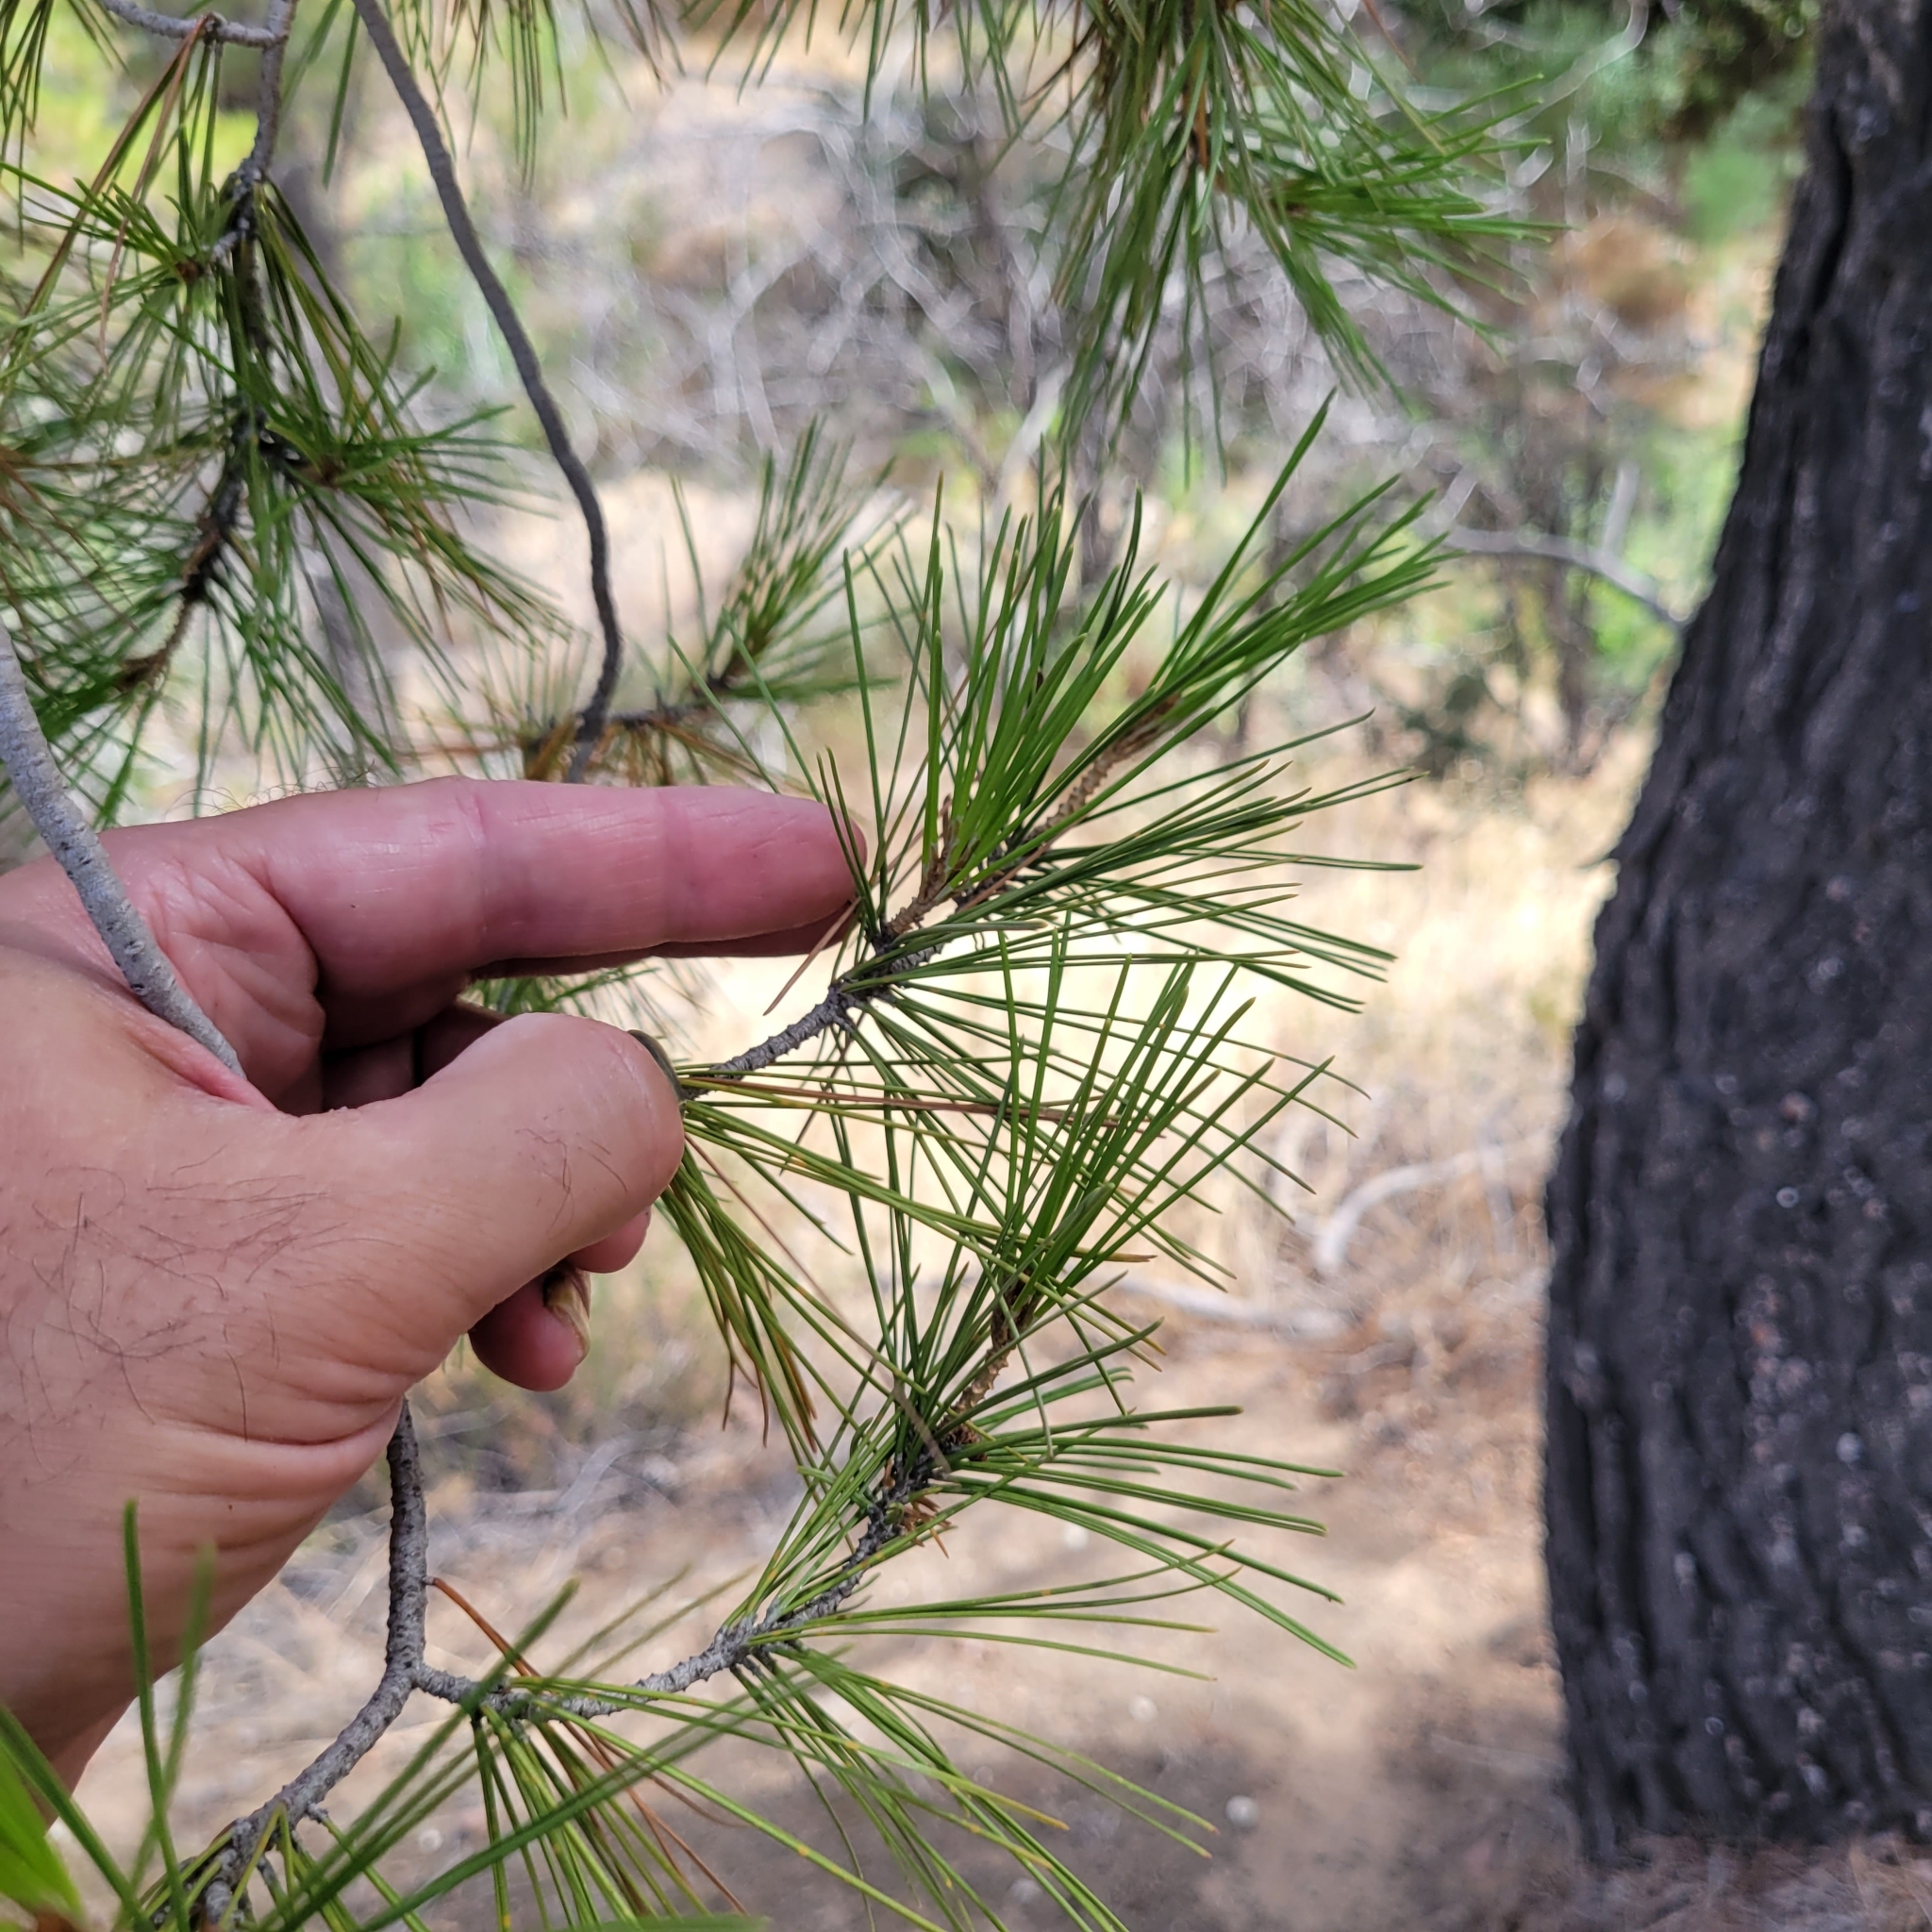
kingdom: Plantae
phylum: Tracheophyta
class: Pinopsida
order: Pinales
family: Pinaceae
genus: Pinus
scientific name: Pinus halepensis
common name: Aleppo pine
